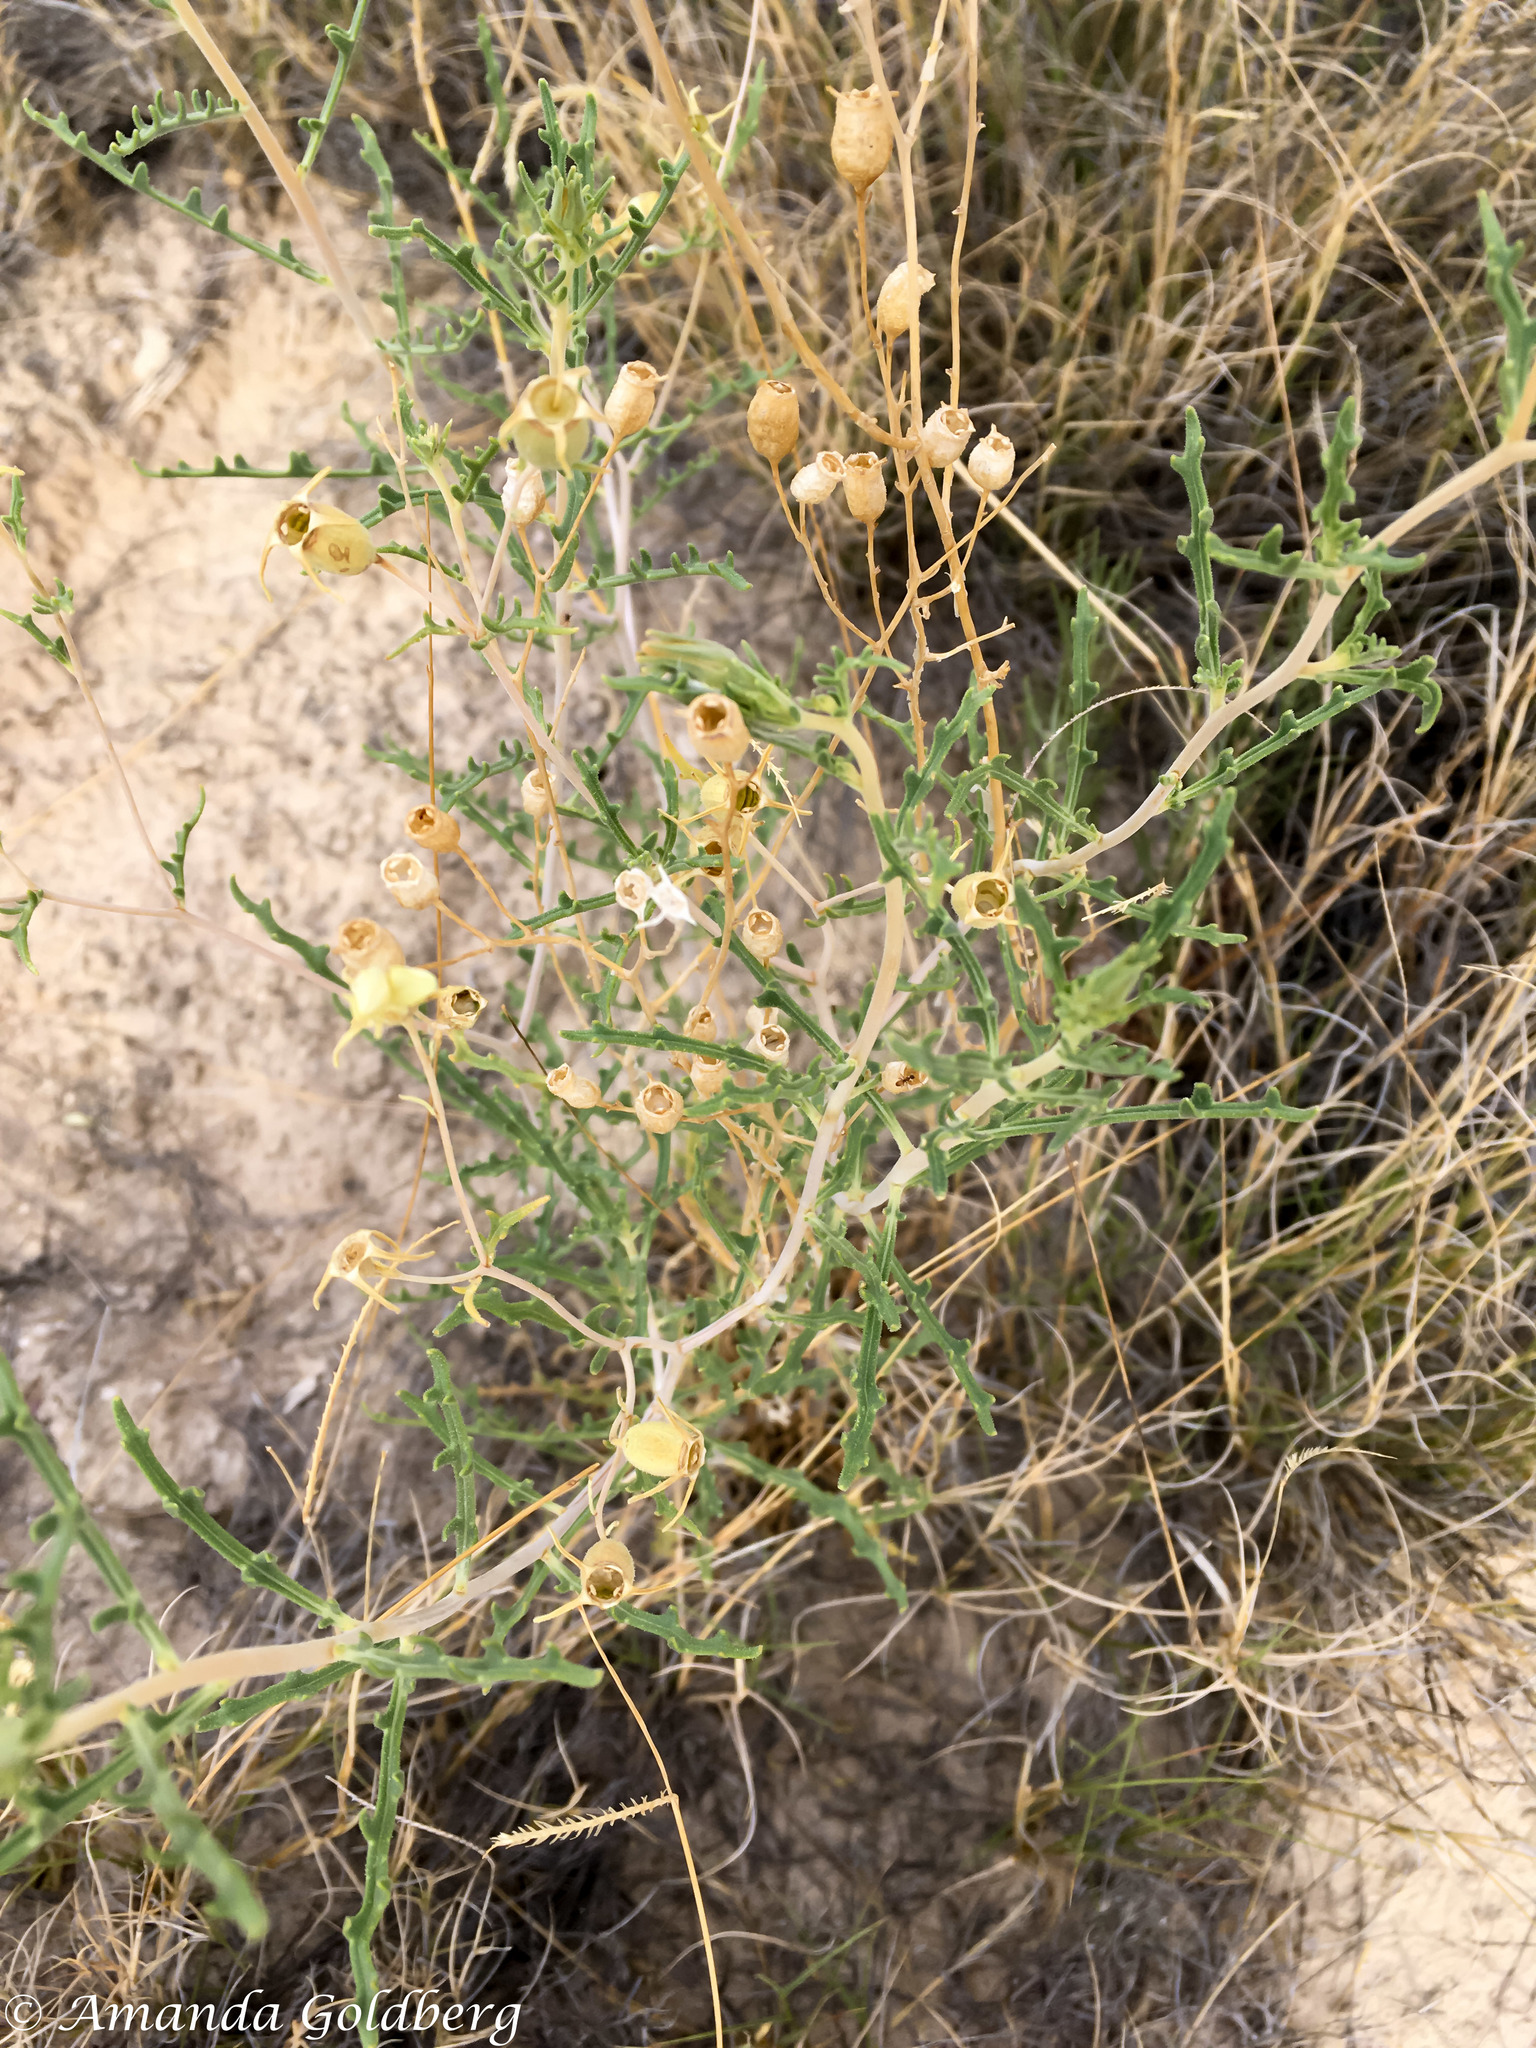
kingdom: Plantae
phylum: Tracheophyta
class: Magnoliopsida
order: Cornales
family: Loasaceae
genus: Mentzelia
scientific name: Mentzelia procera
